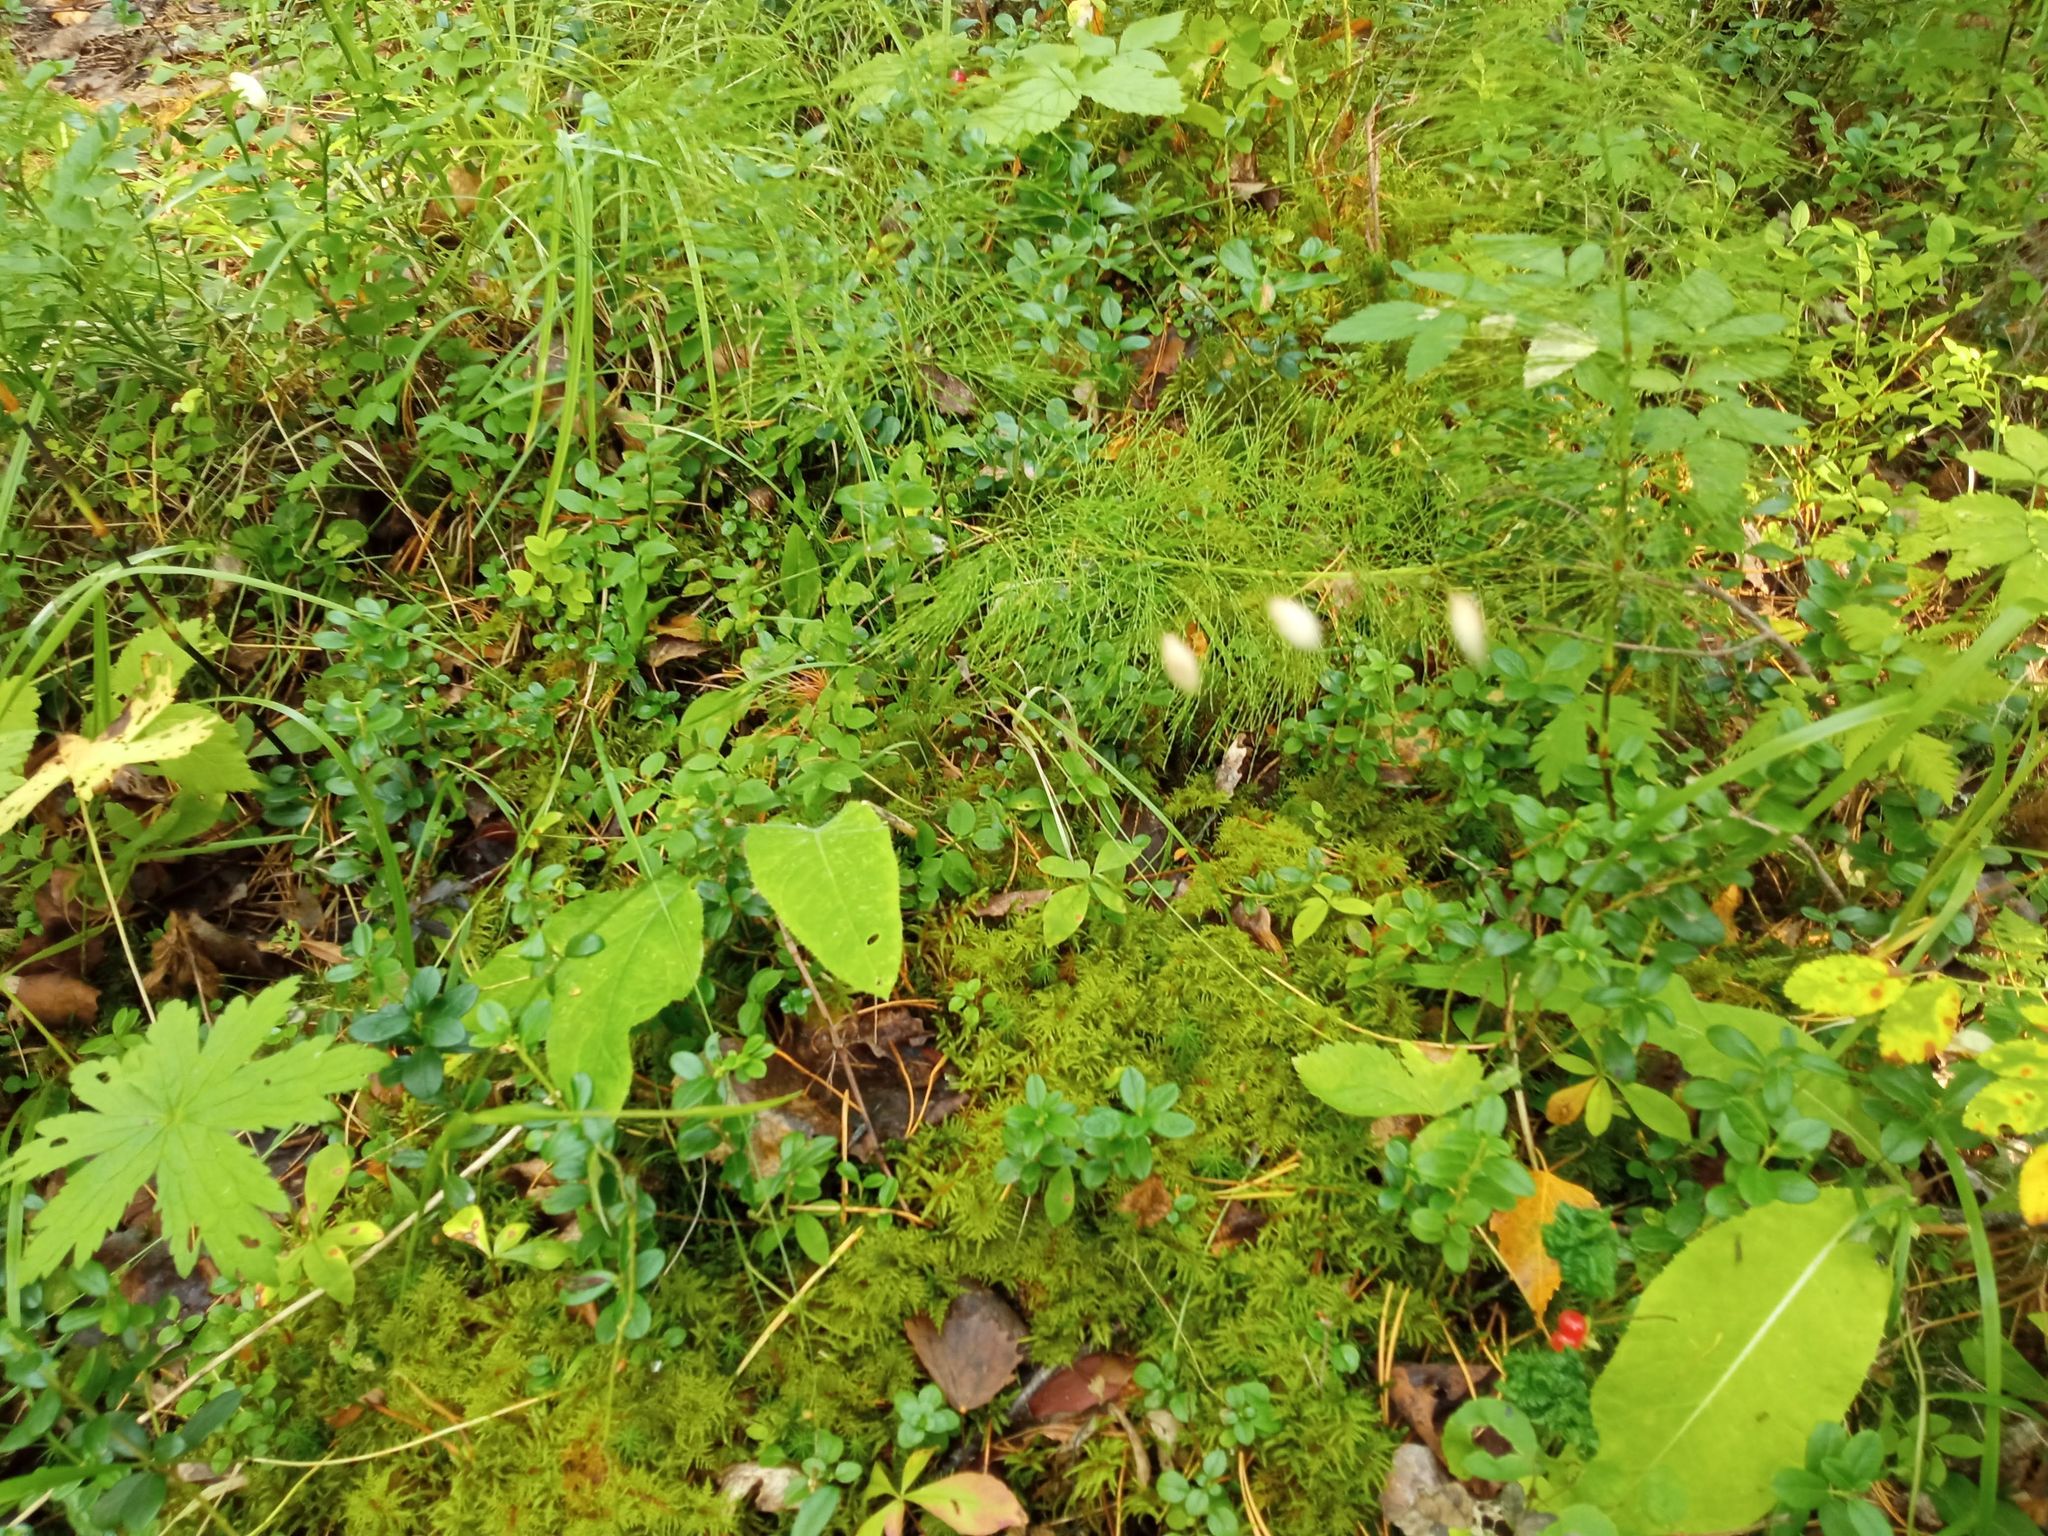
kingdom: Plantae
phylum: Tracheophyta
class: Liliopsida
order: Poales
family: Poaceae
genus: Melica
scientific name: Melica nutans
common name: Mountain melick
